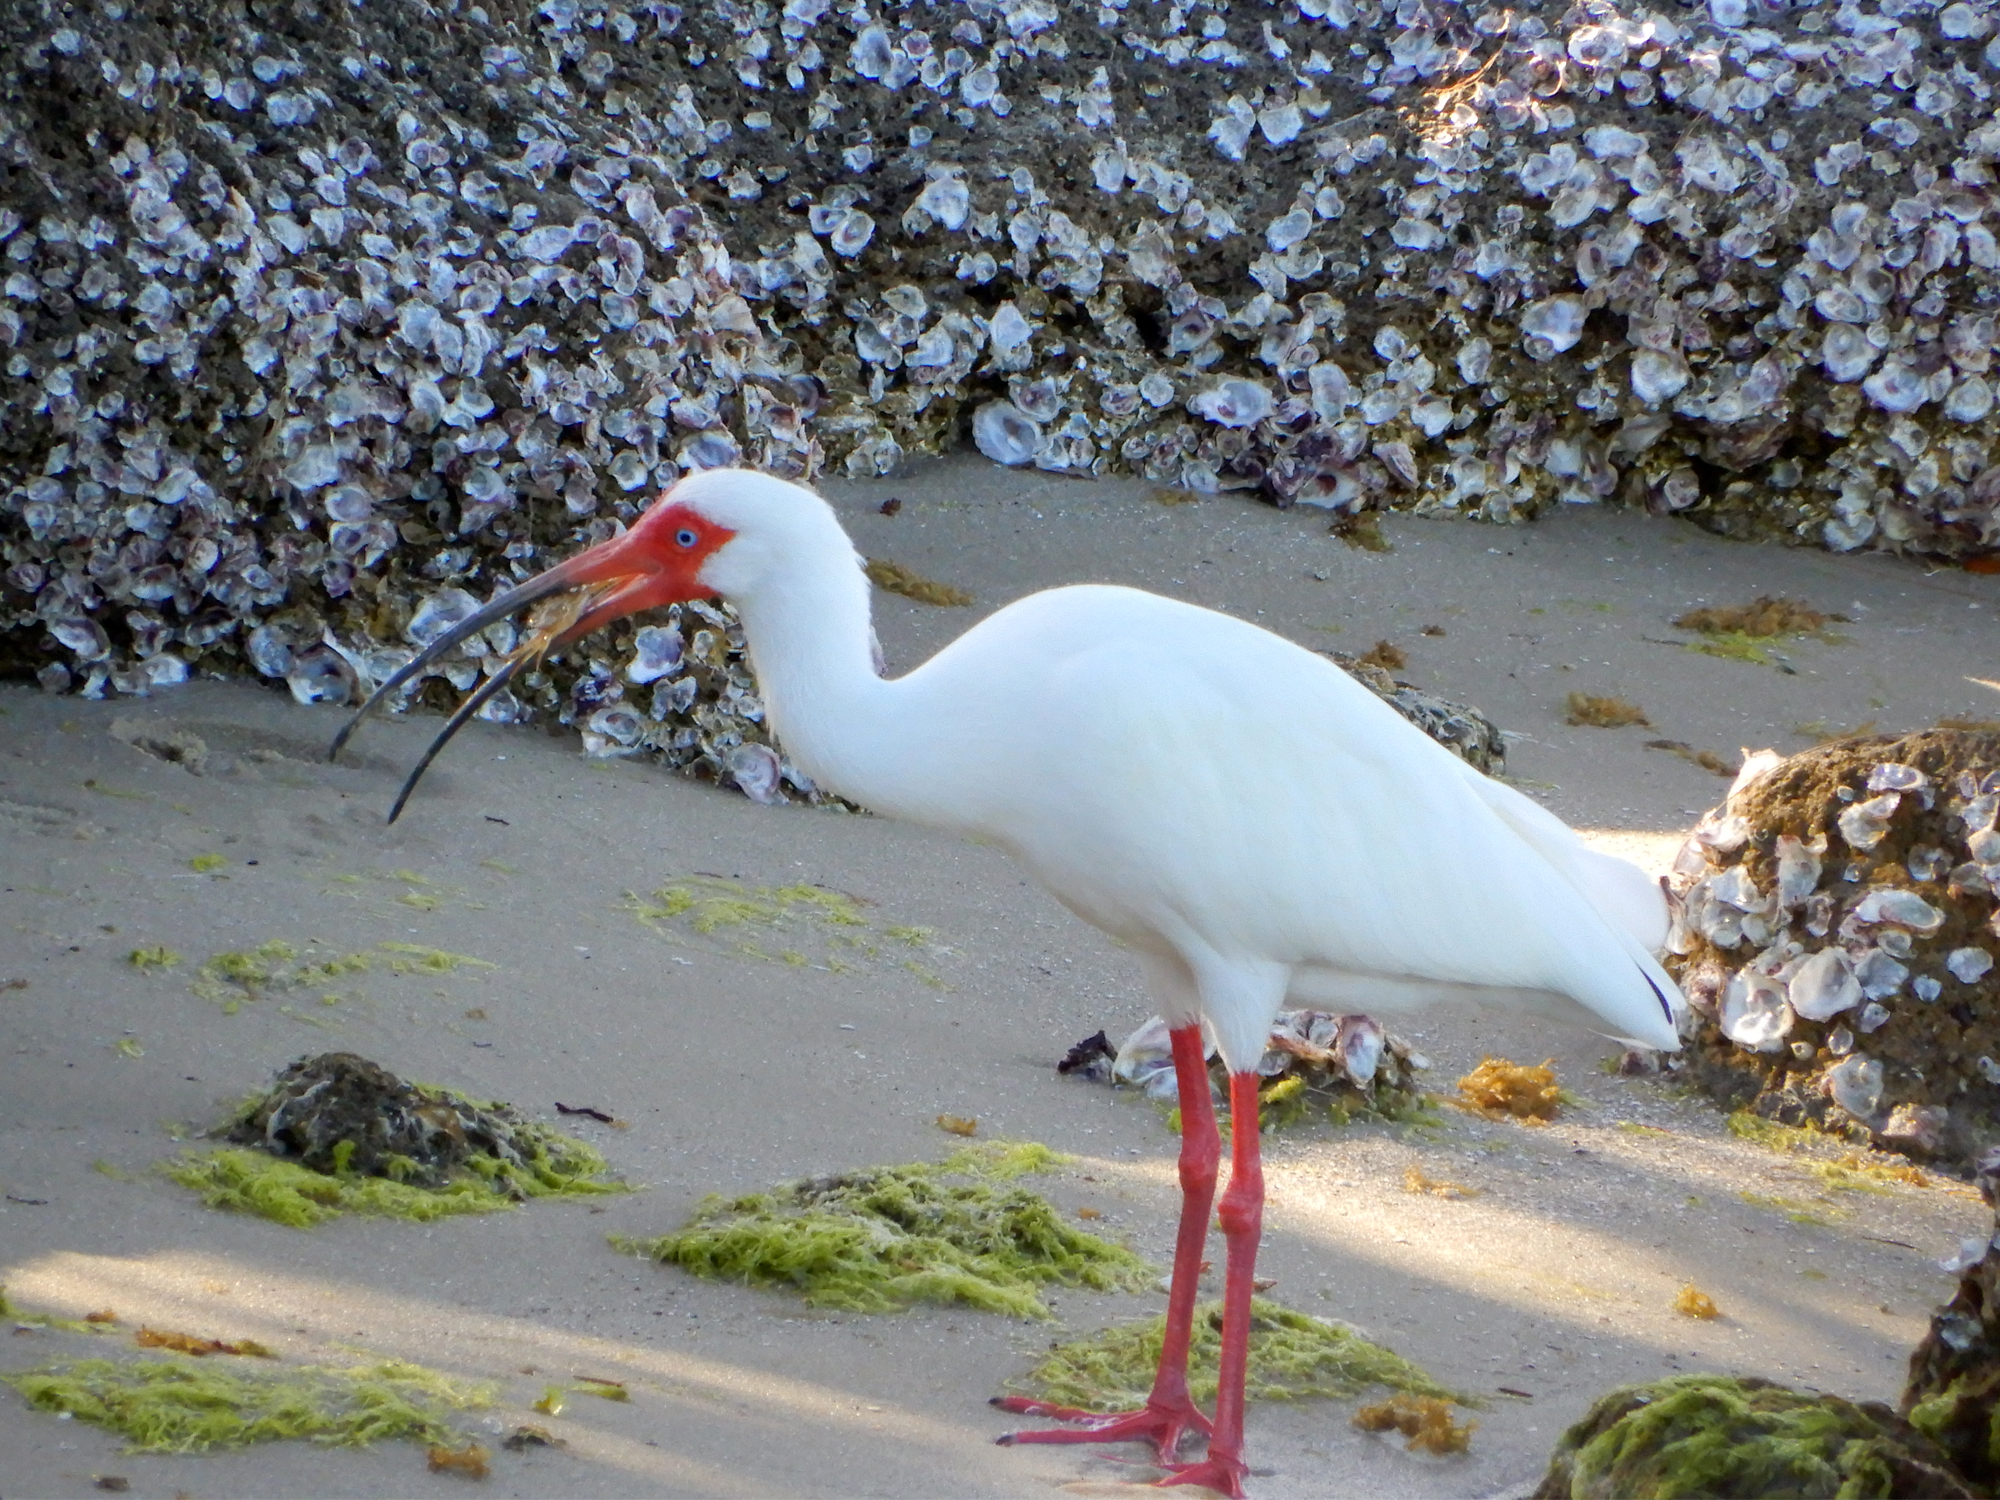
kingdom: Animalia
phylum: Chordata
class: Aves
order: Pelecaniformes
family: Threskiornithidae
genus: Eudocimus
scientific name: Eudocimus albus
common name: White ibis
